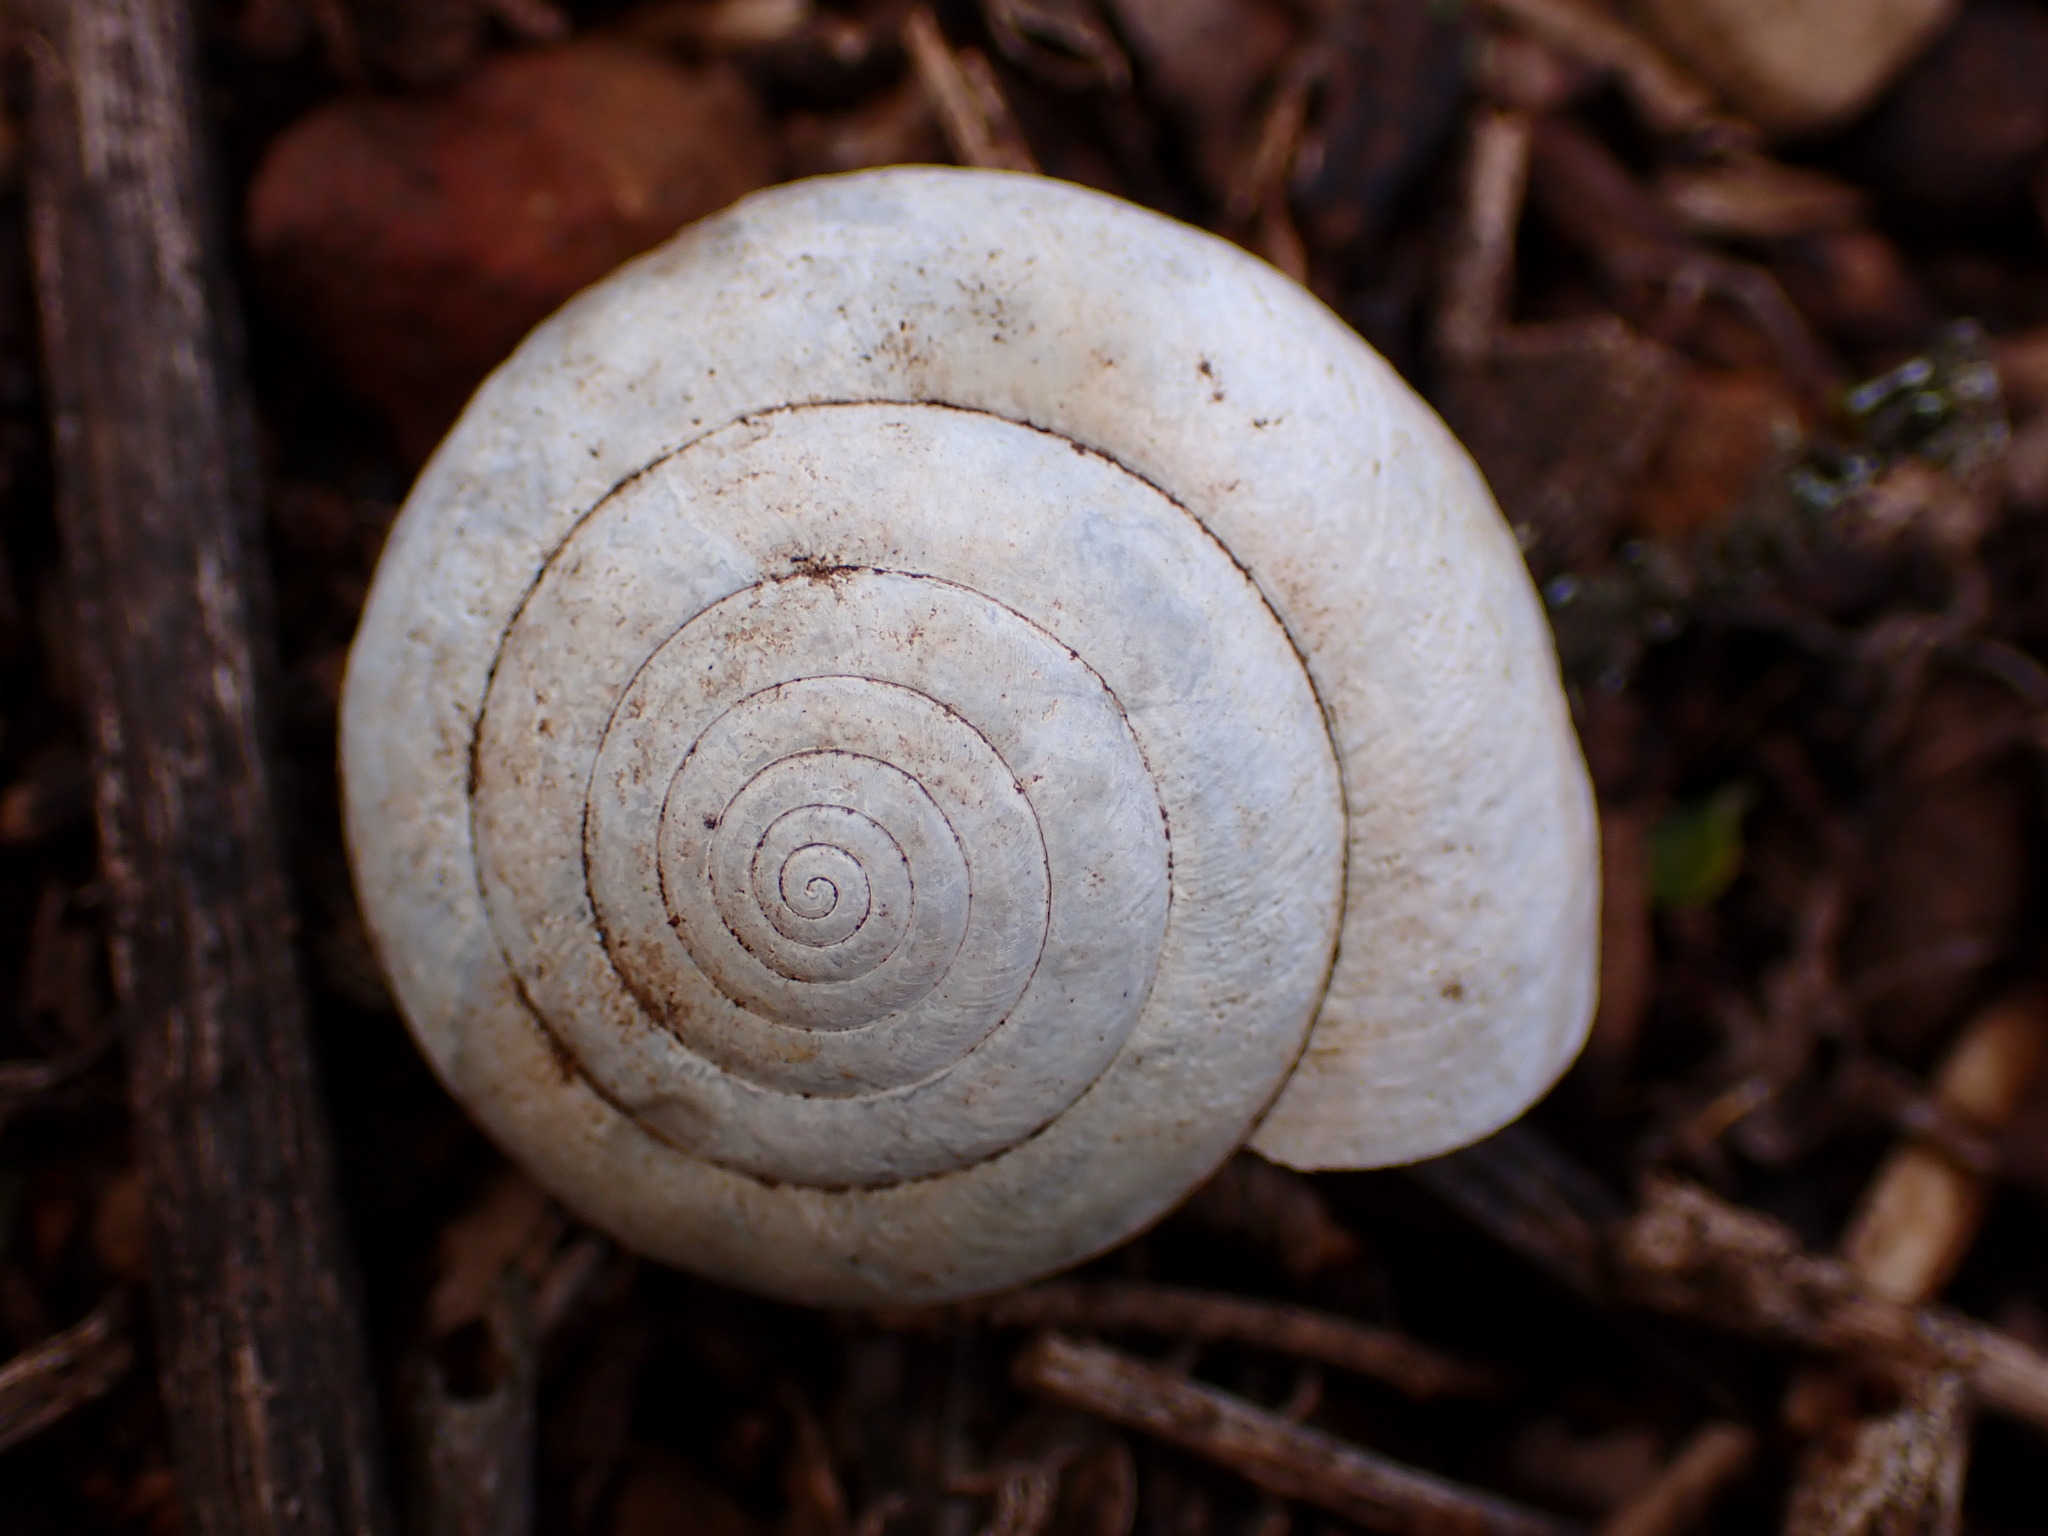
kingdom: Animalia
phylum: Mollusca
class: Gastropoda
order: Stylommatophora
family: Xanthonychidae
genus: Helminthoglypta
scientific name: Helminthoglypta arrosa
